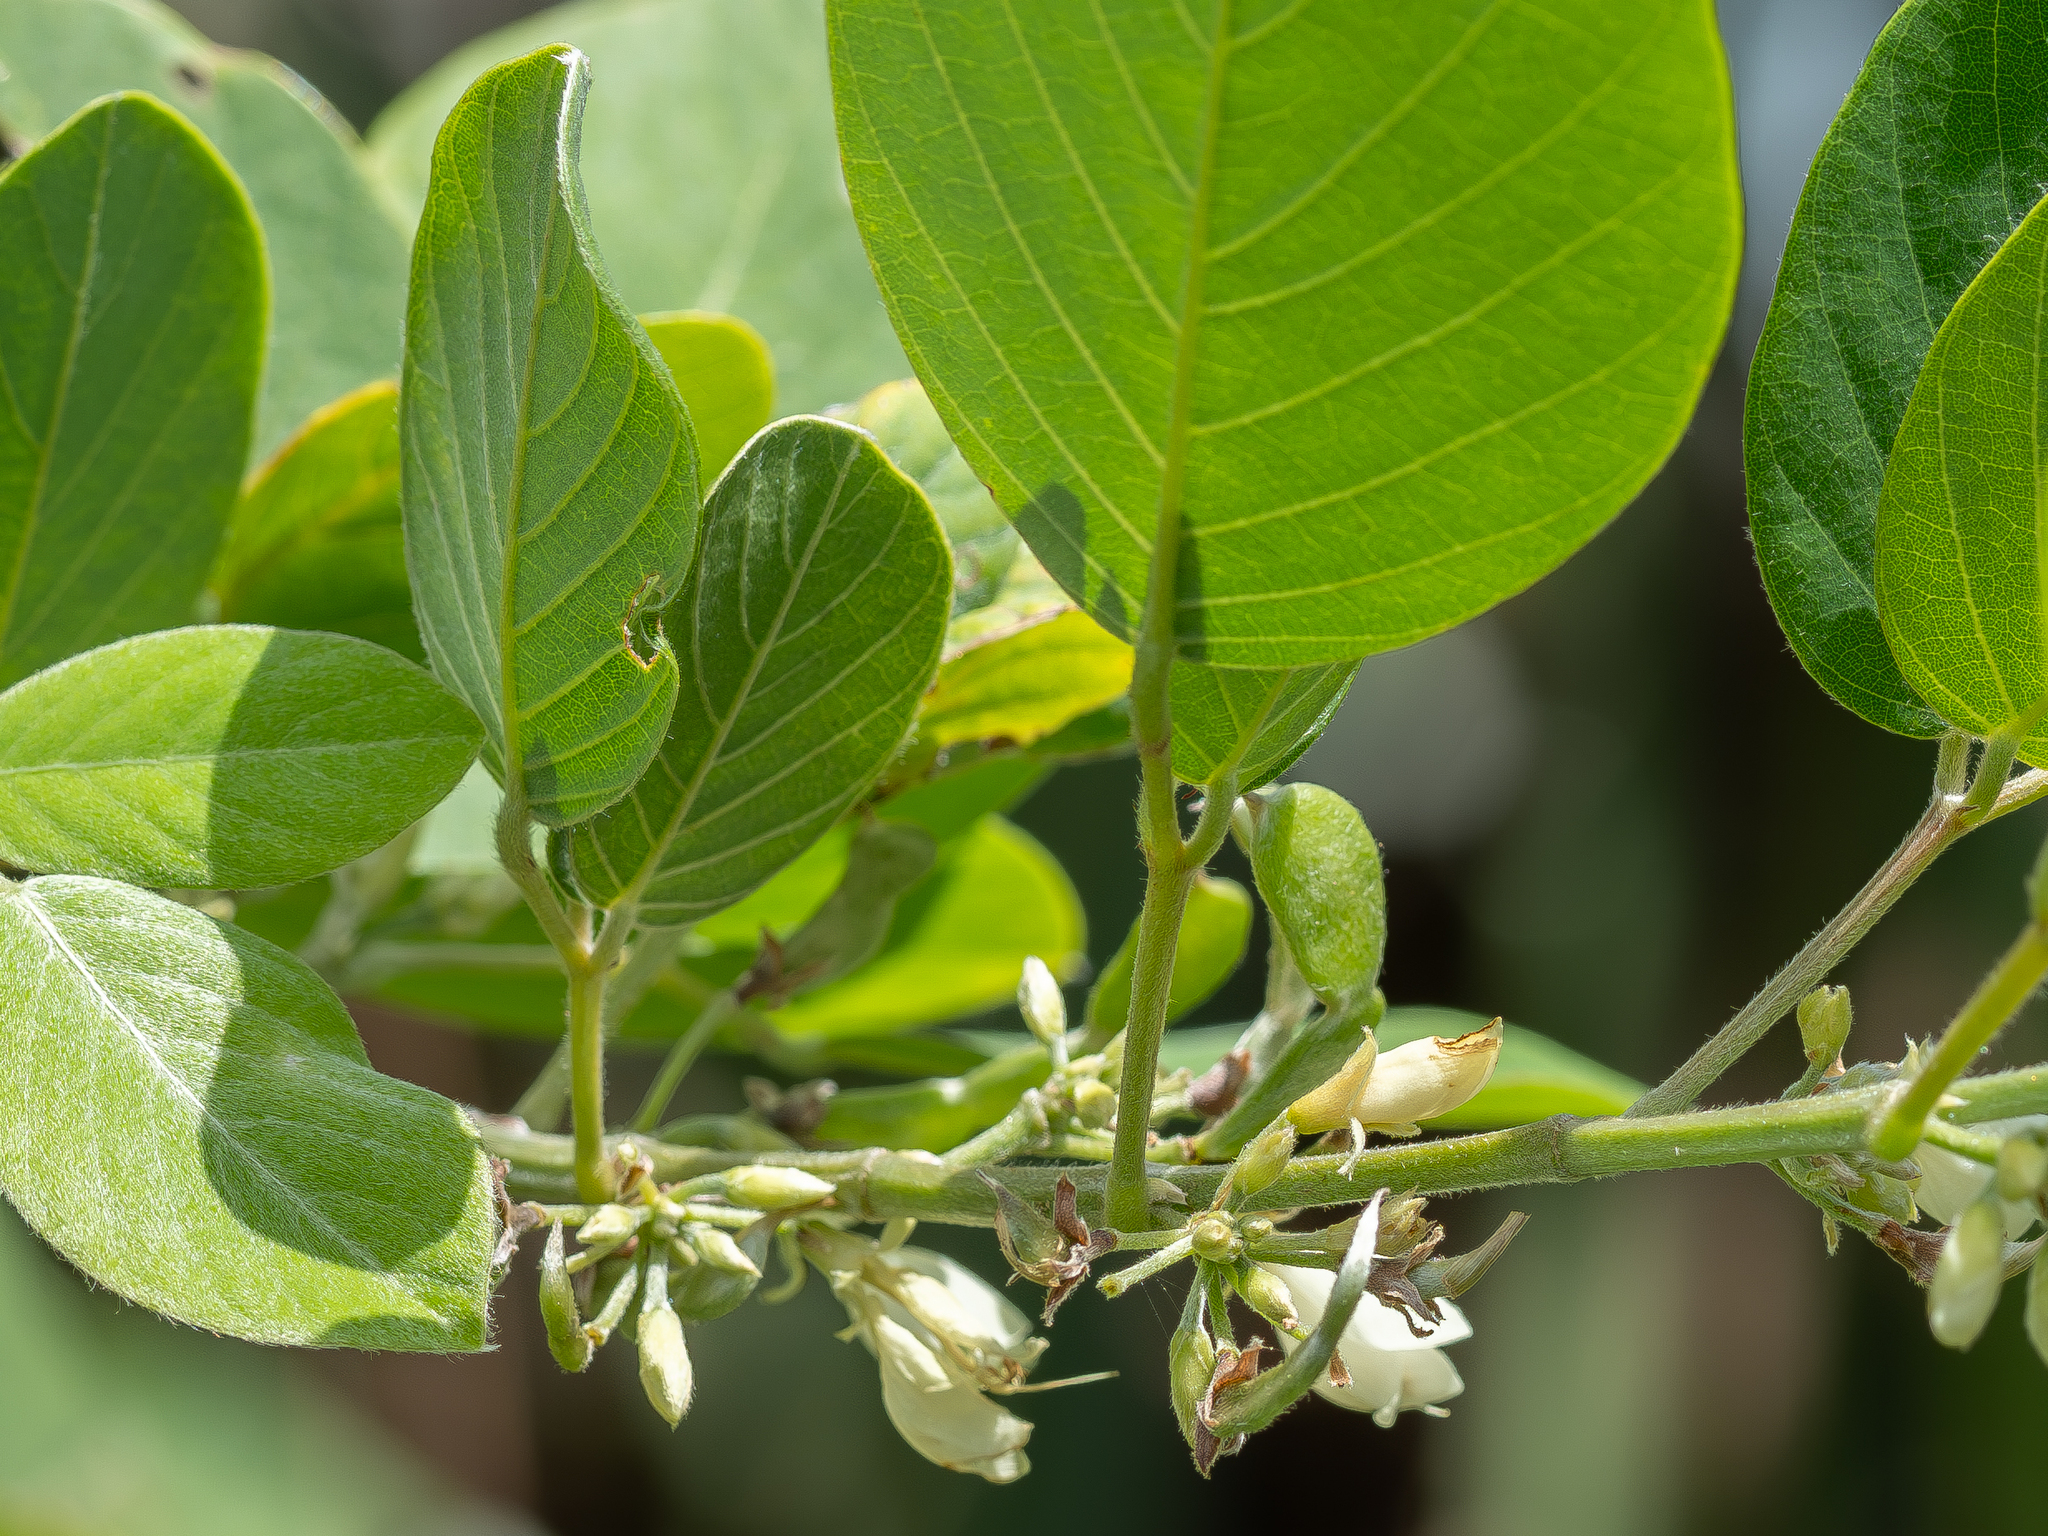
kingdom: Plantae
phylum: Tracheophyta
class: Magnoliopsida
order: Fabales
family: Fabaceae
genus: Dendrolobium
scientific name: Dendrolobium umbellatum
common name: Horsebush
